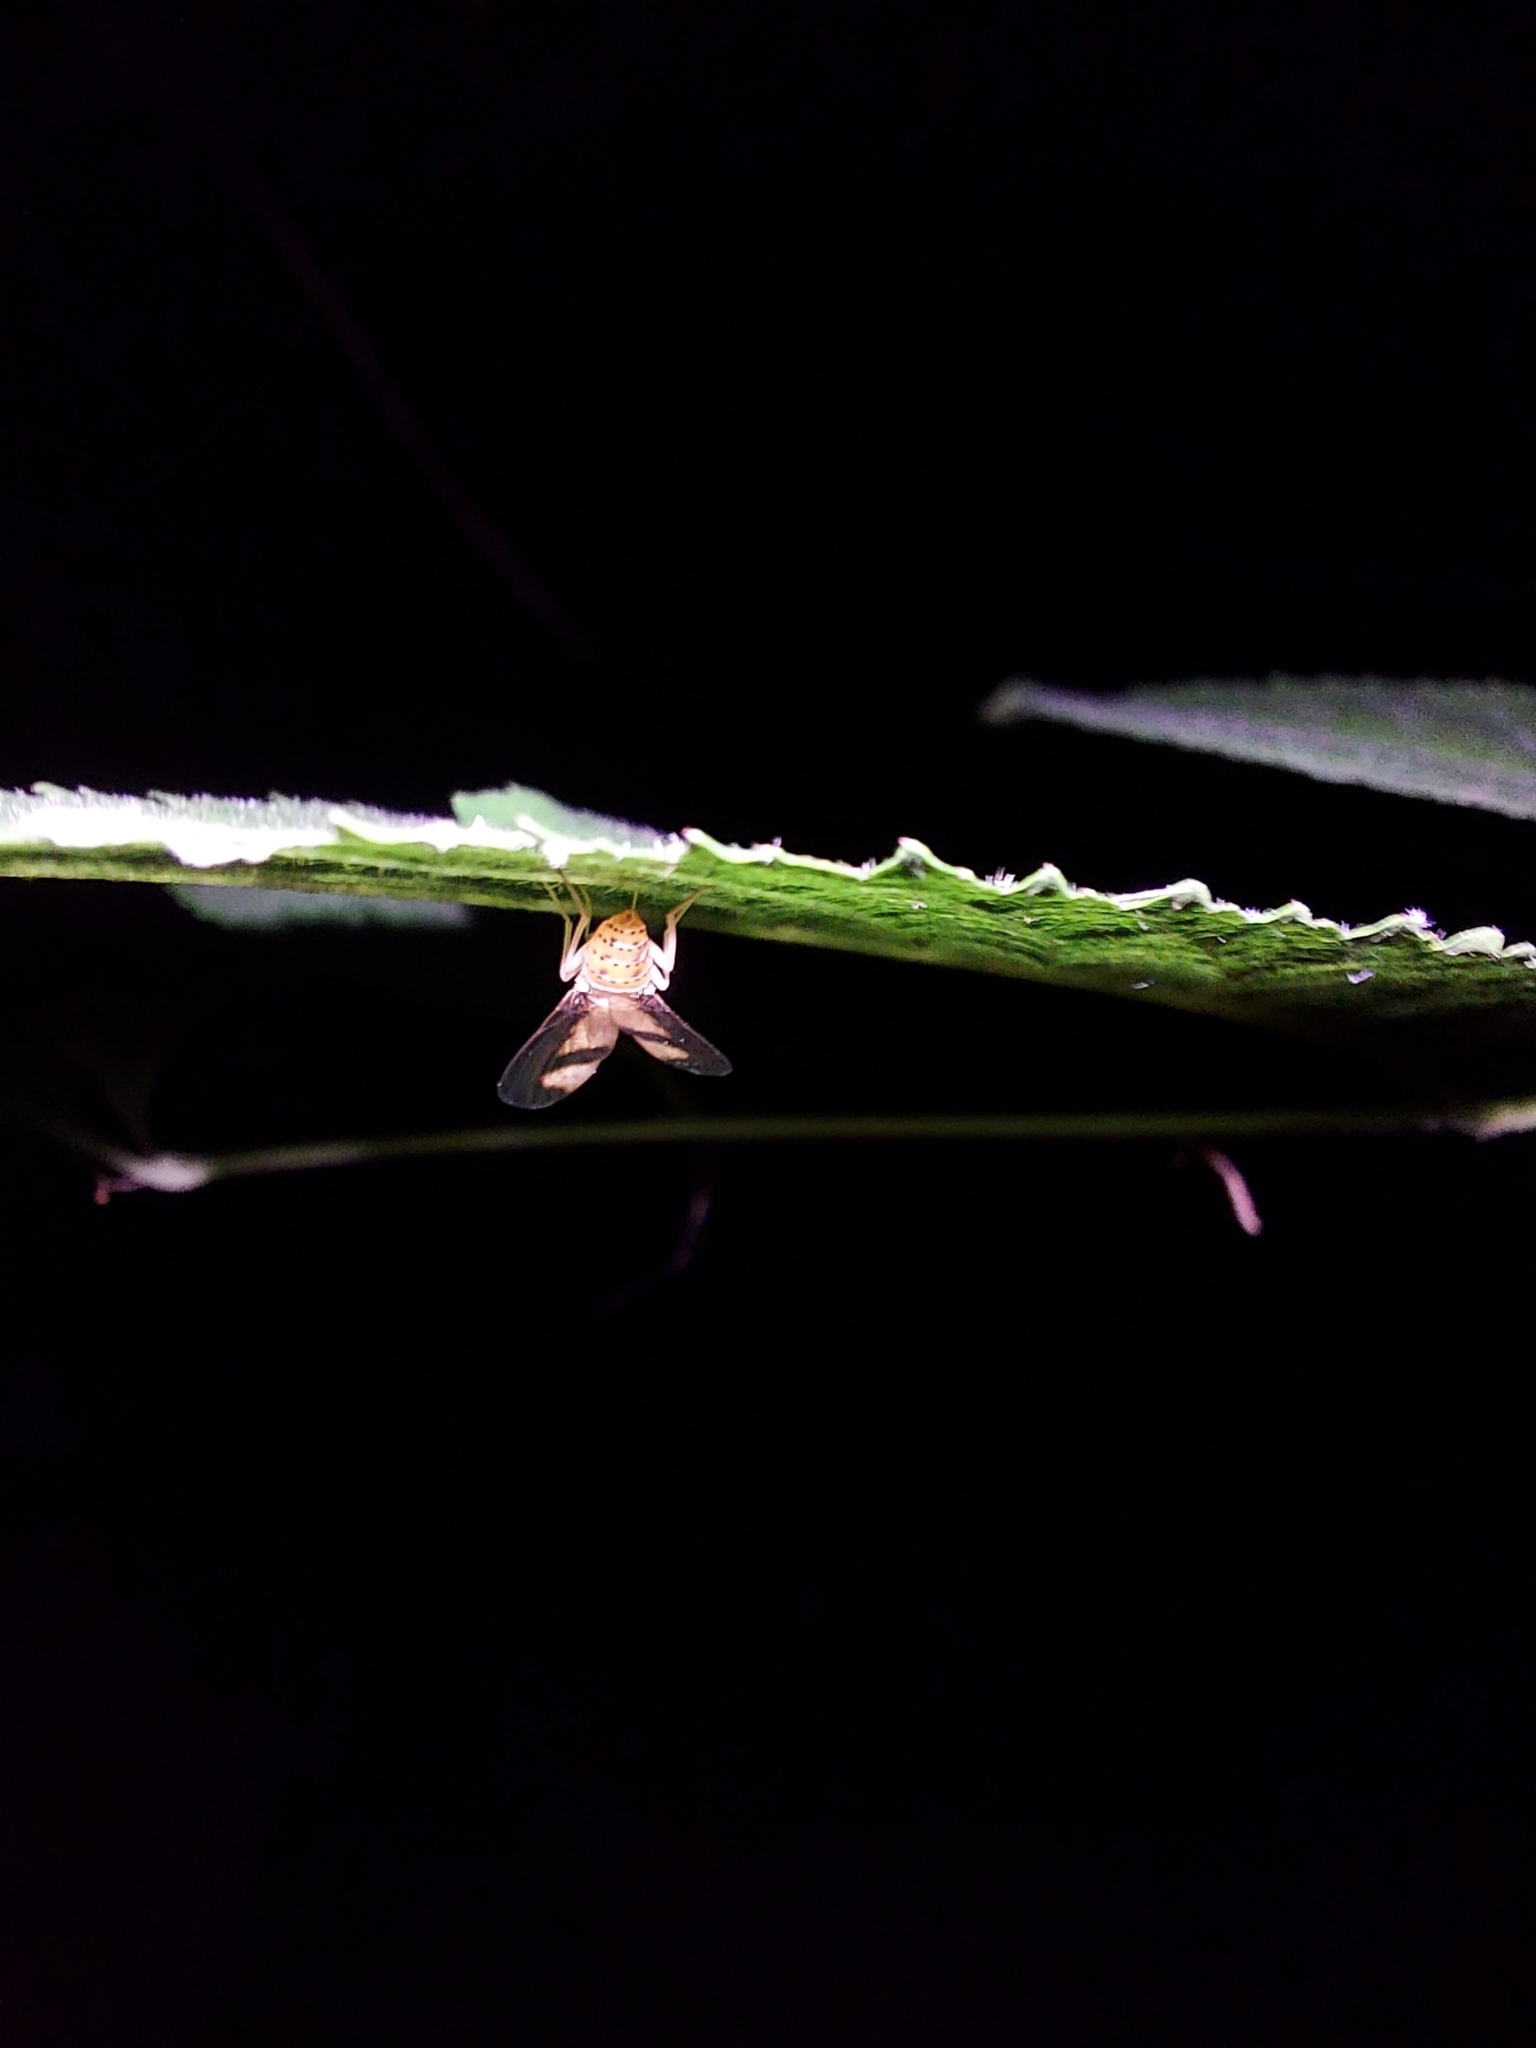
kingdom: Animalia
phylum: Arthropoda
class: Insecta
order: Diptera
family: Pallopteridae
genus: Toxonevra
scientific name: Toxonevra superba
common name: Antlered flutter fly
